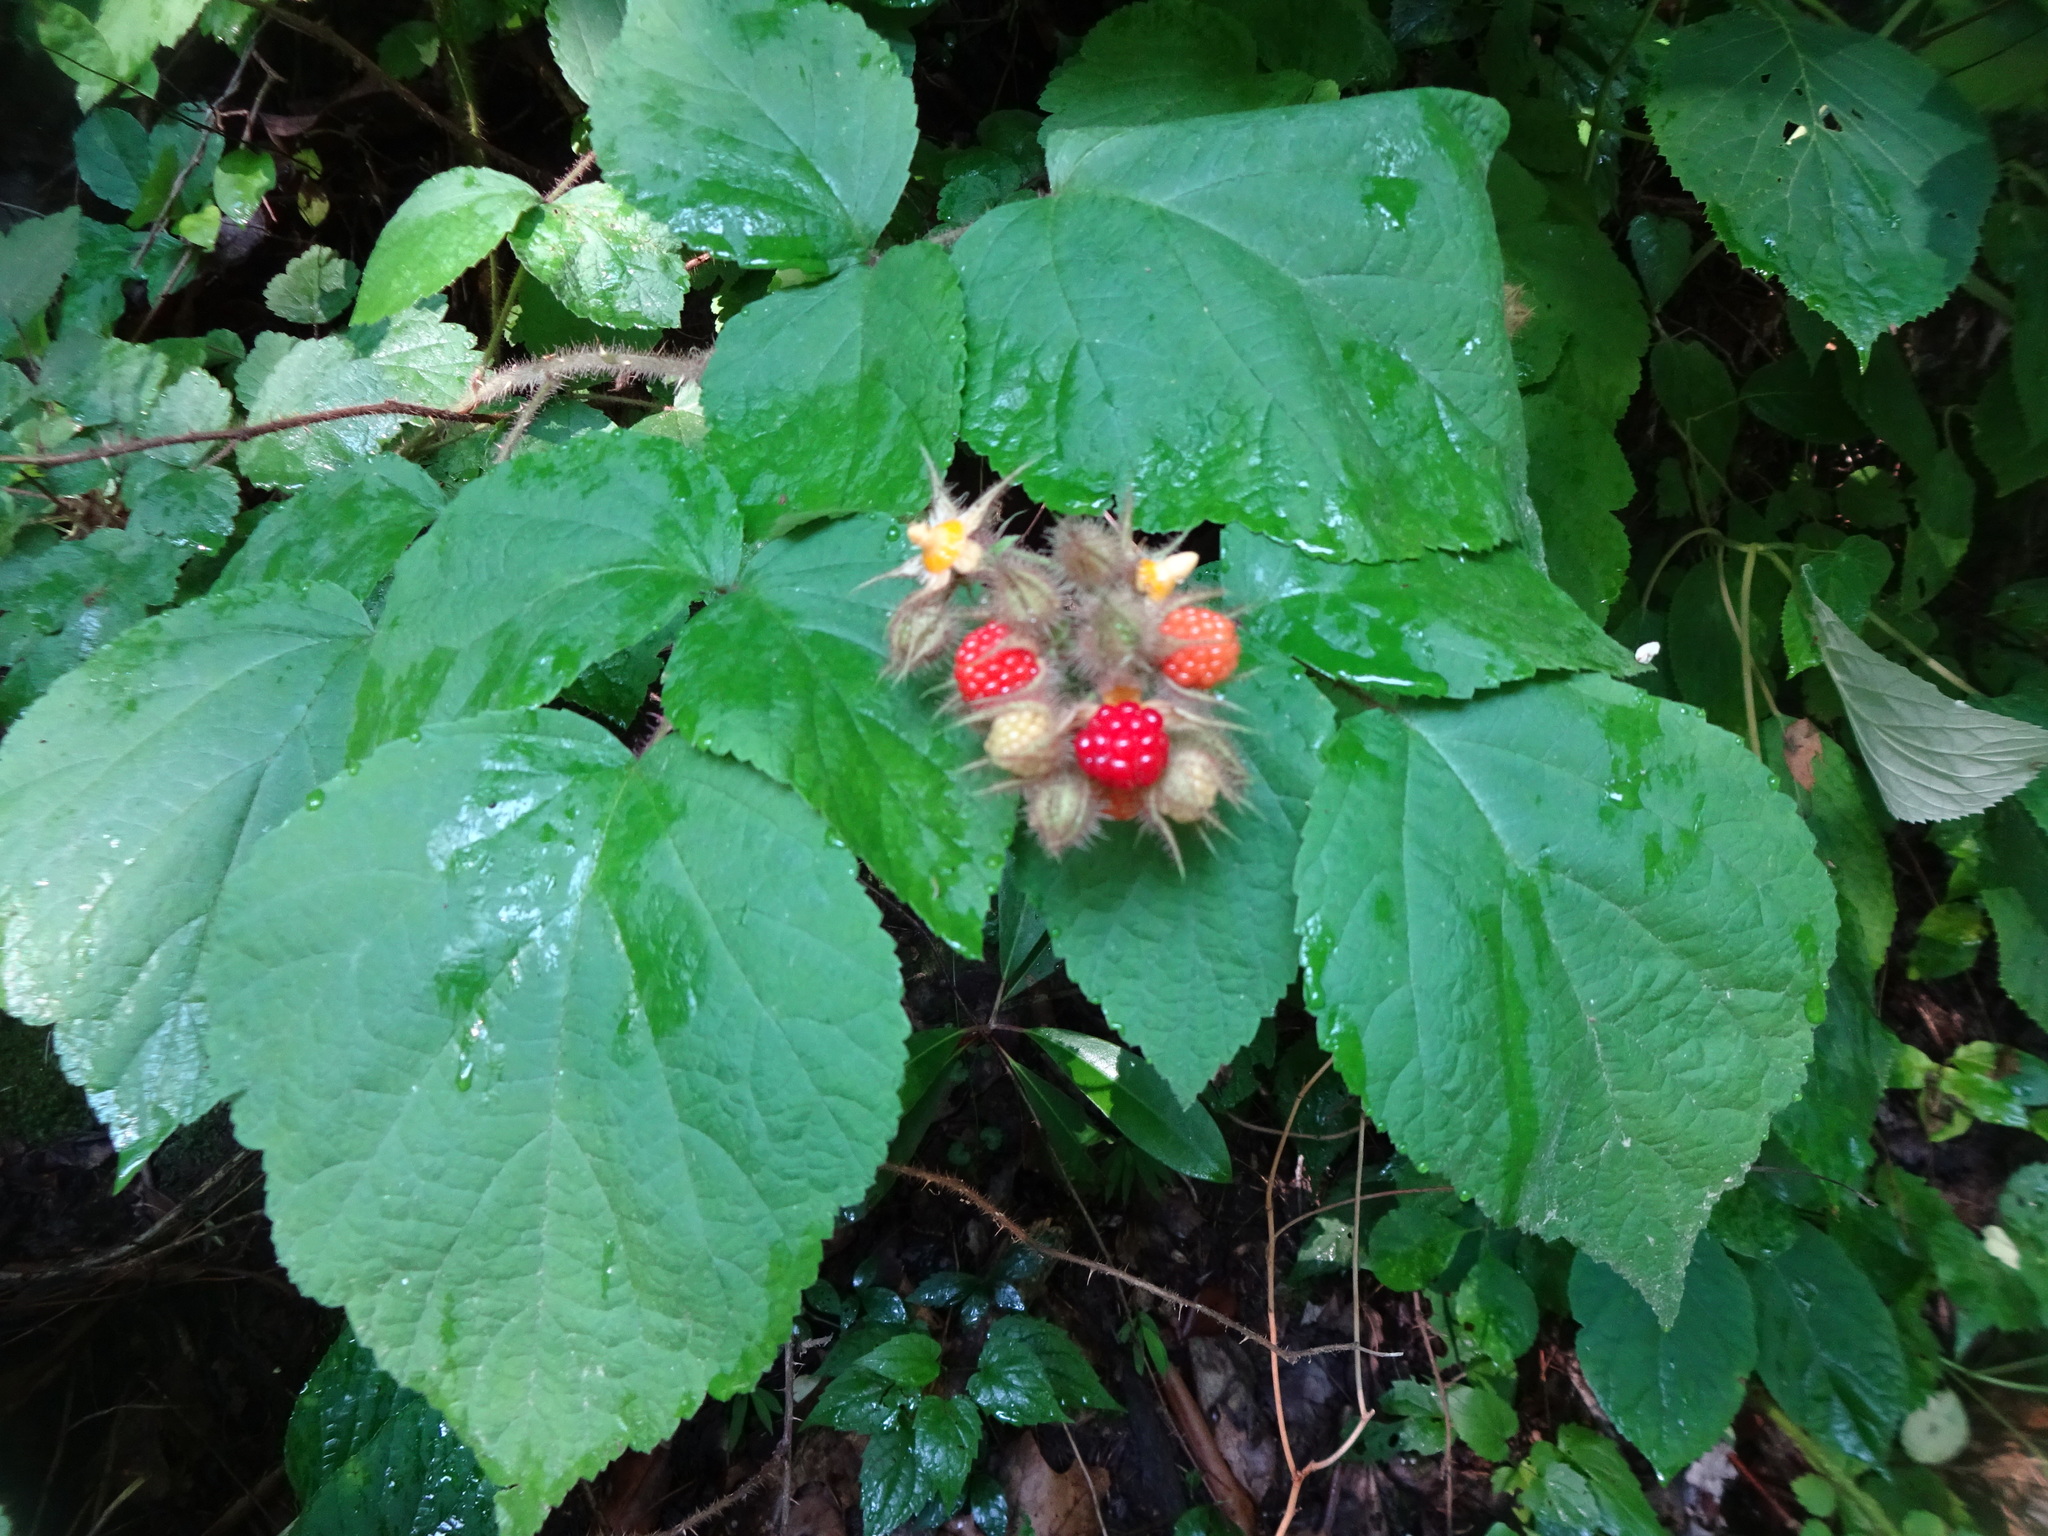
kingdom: Plantae
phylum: Tracheophyta
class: Magnoliopsida
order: Rosales
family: Rosaceae
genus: Rubus
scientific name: Rubus phoenicolasius
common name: Japanese wineberry
